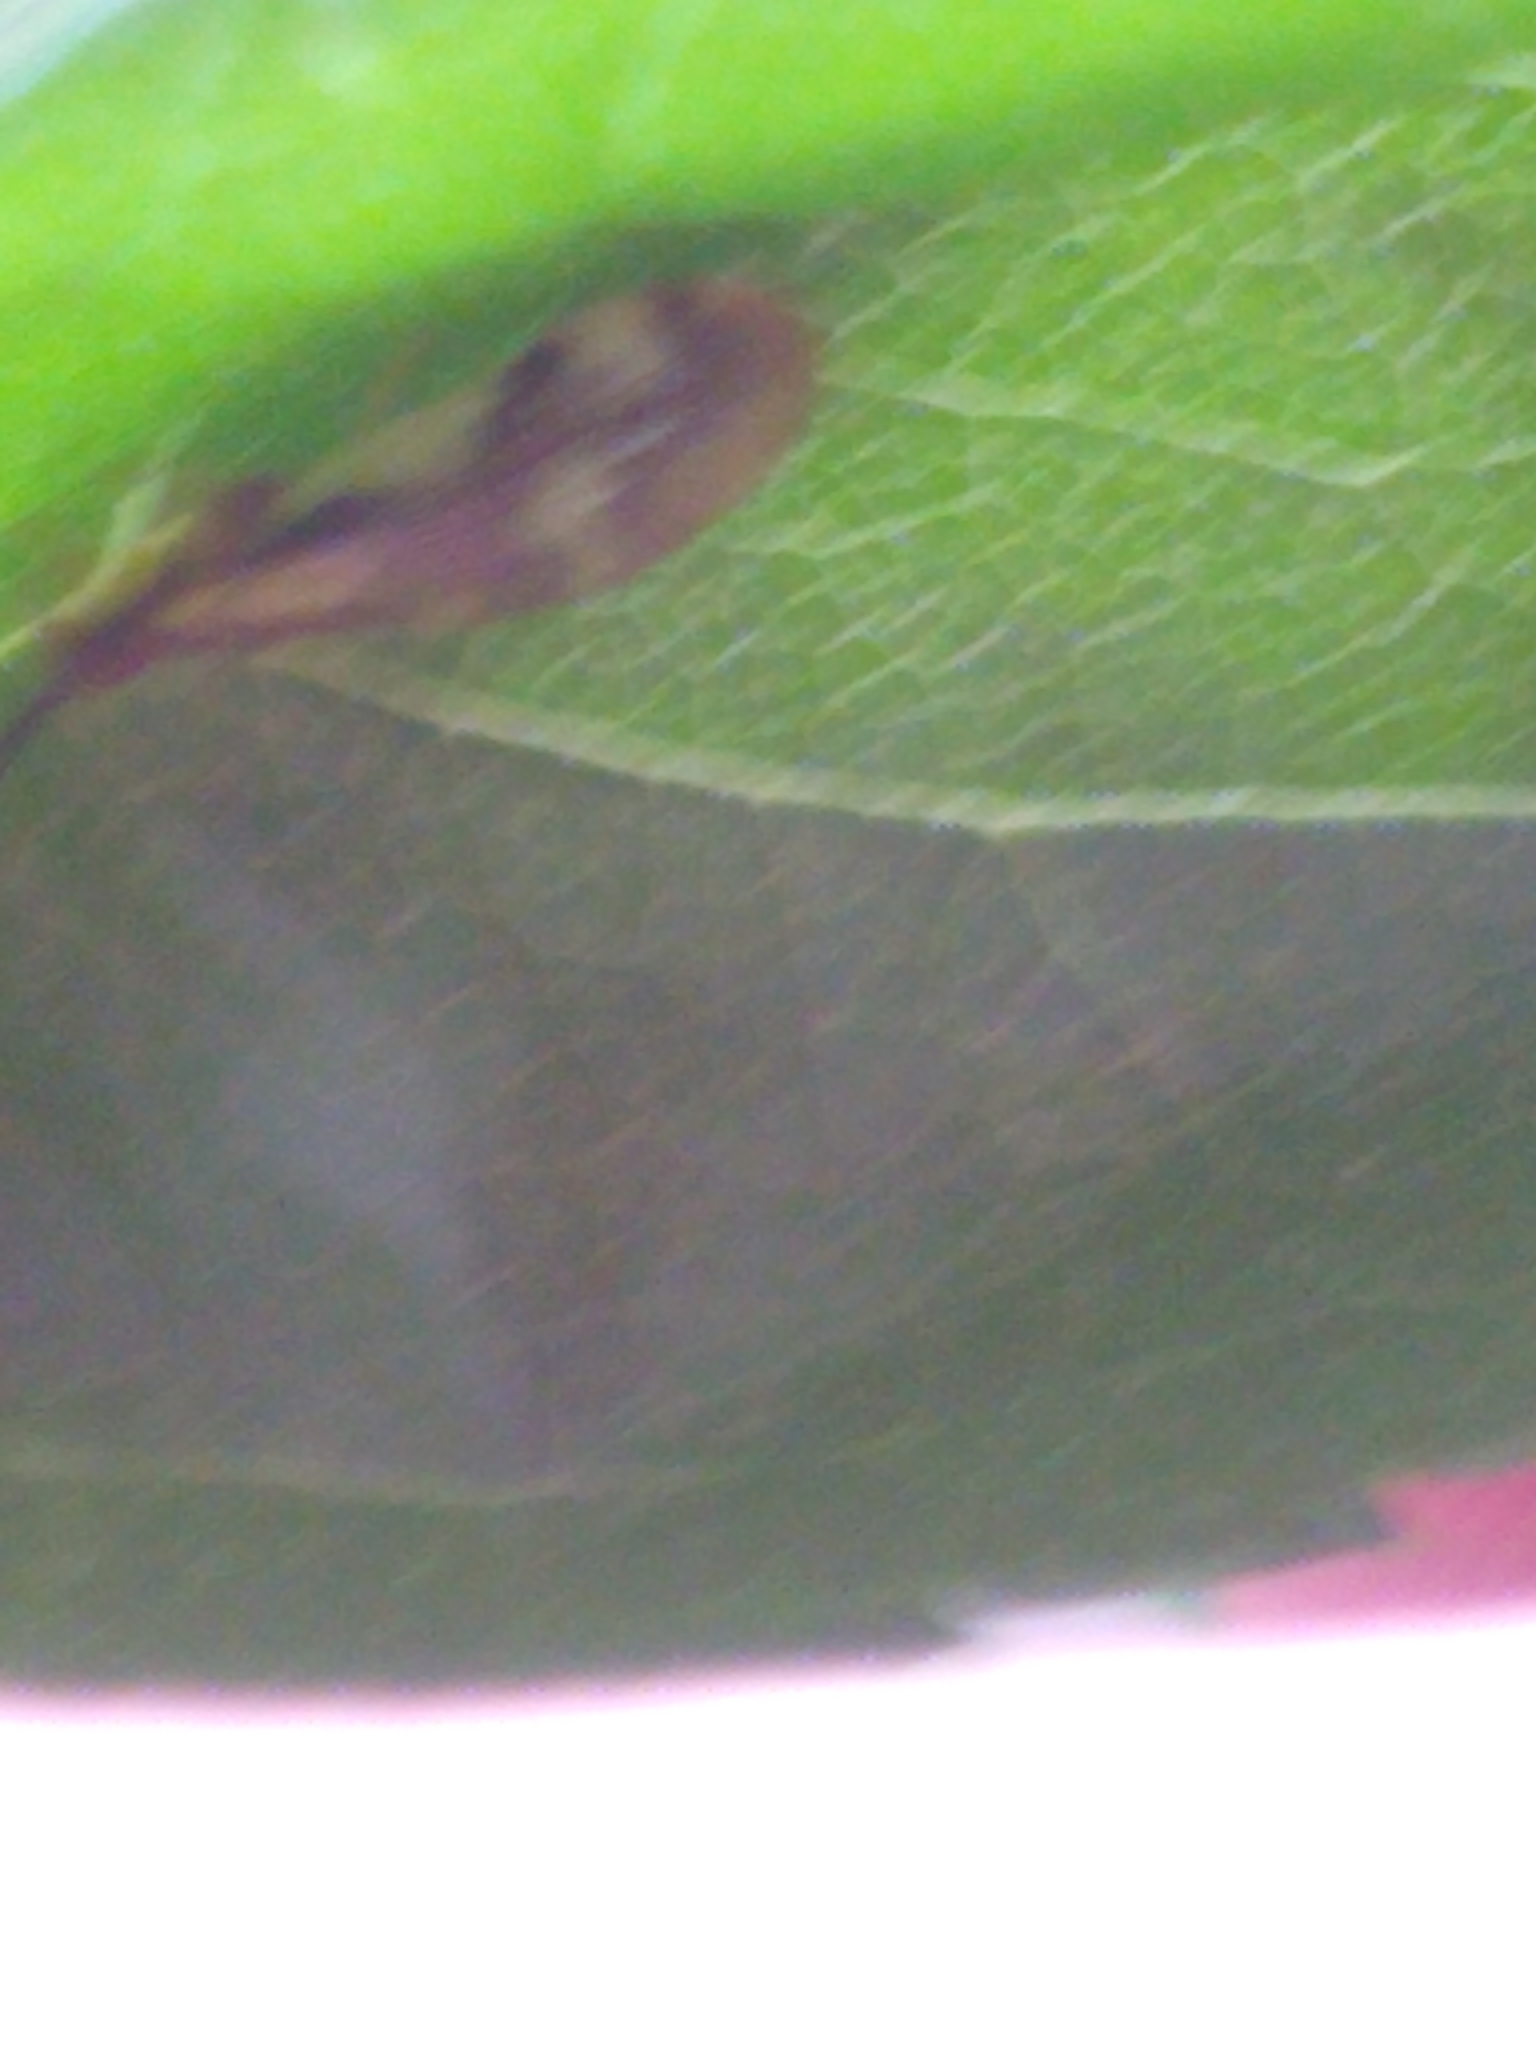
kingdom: Animalia
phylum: Arthropoda
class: Insecta
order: Neuroptera
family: Sisyridae
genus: Climacia
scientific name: Climacia areolaris
